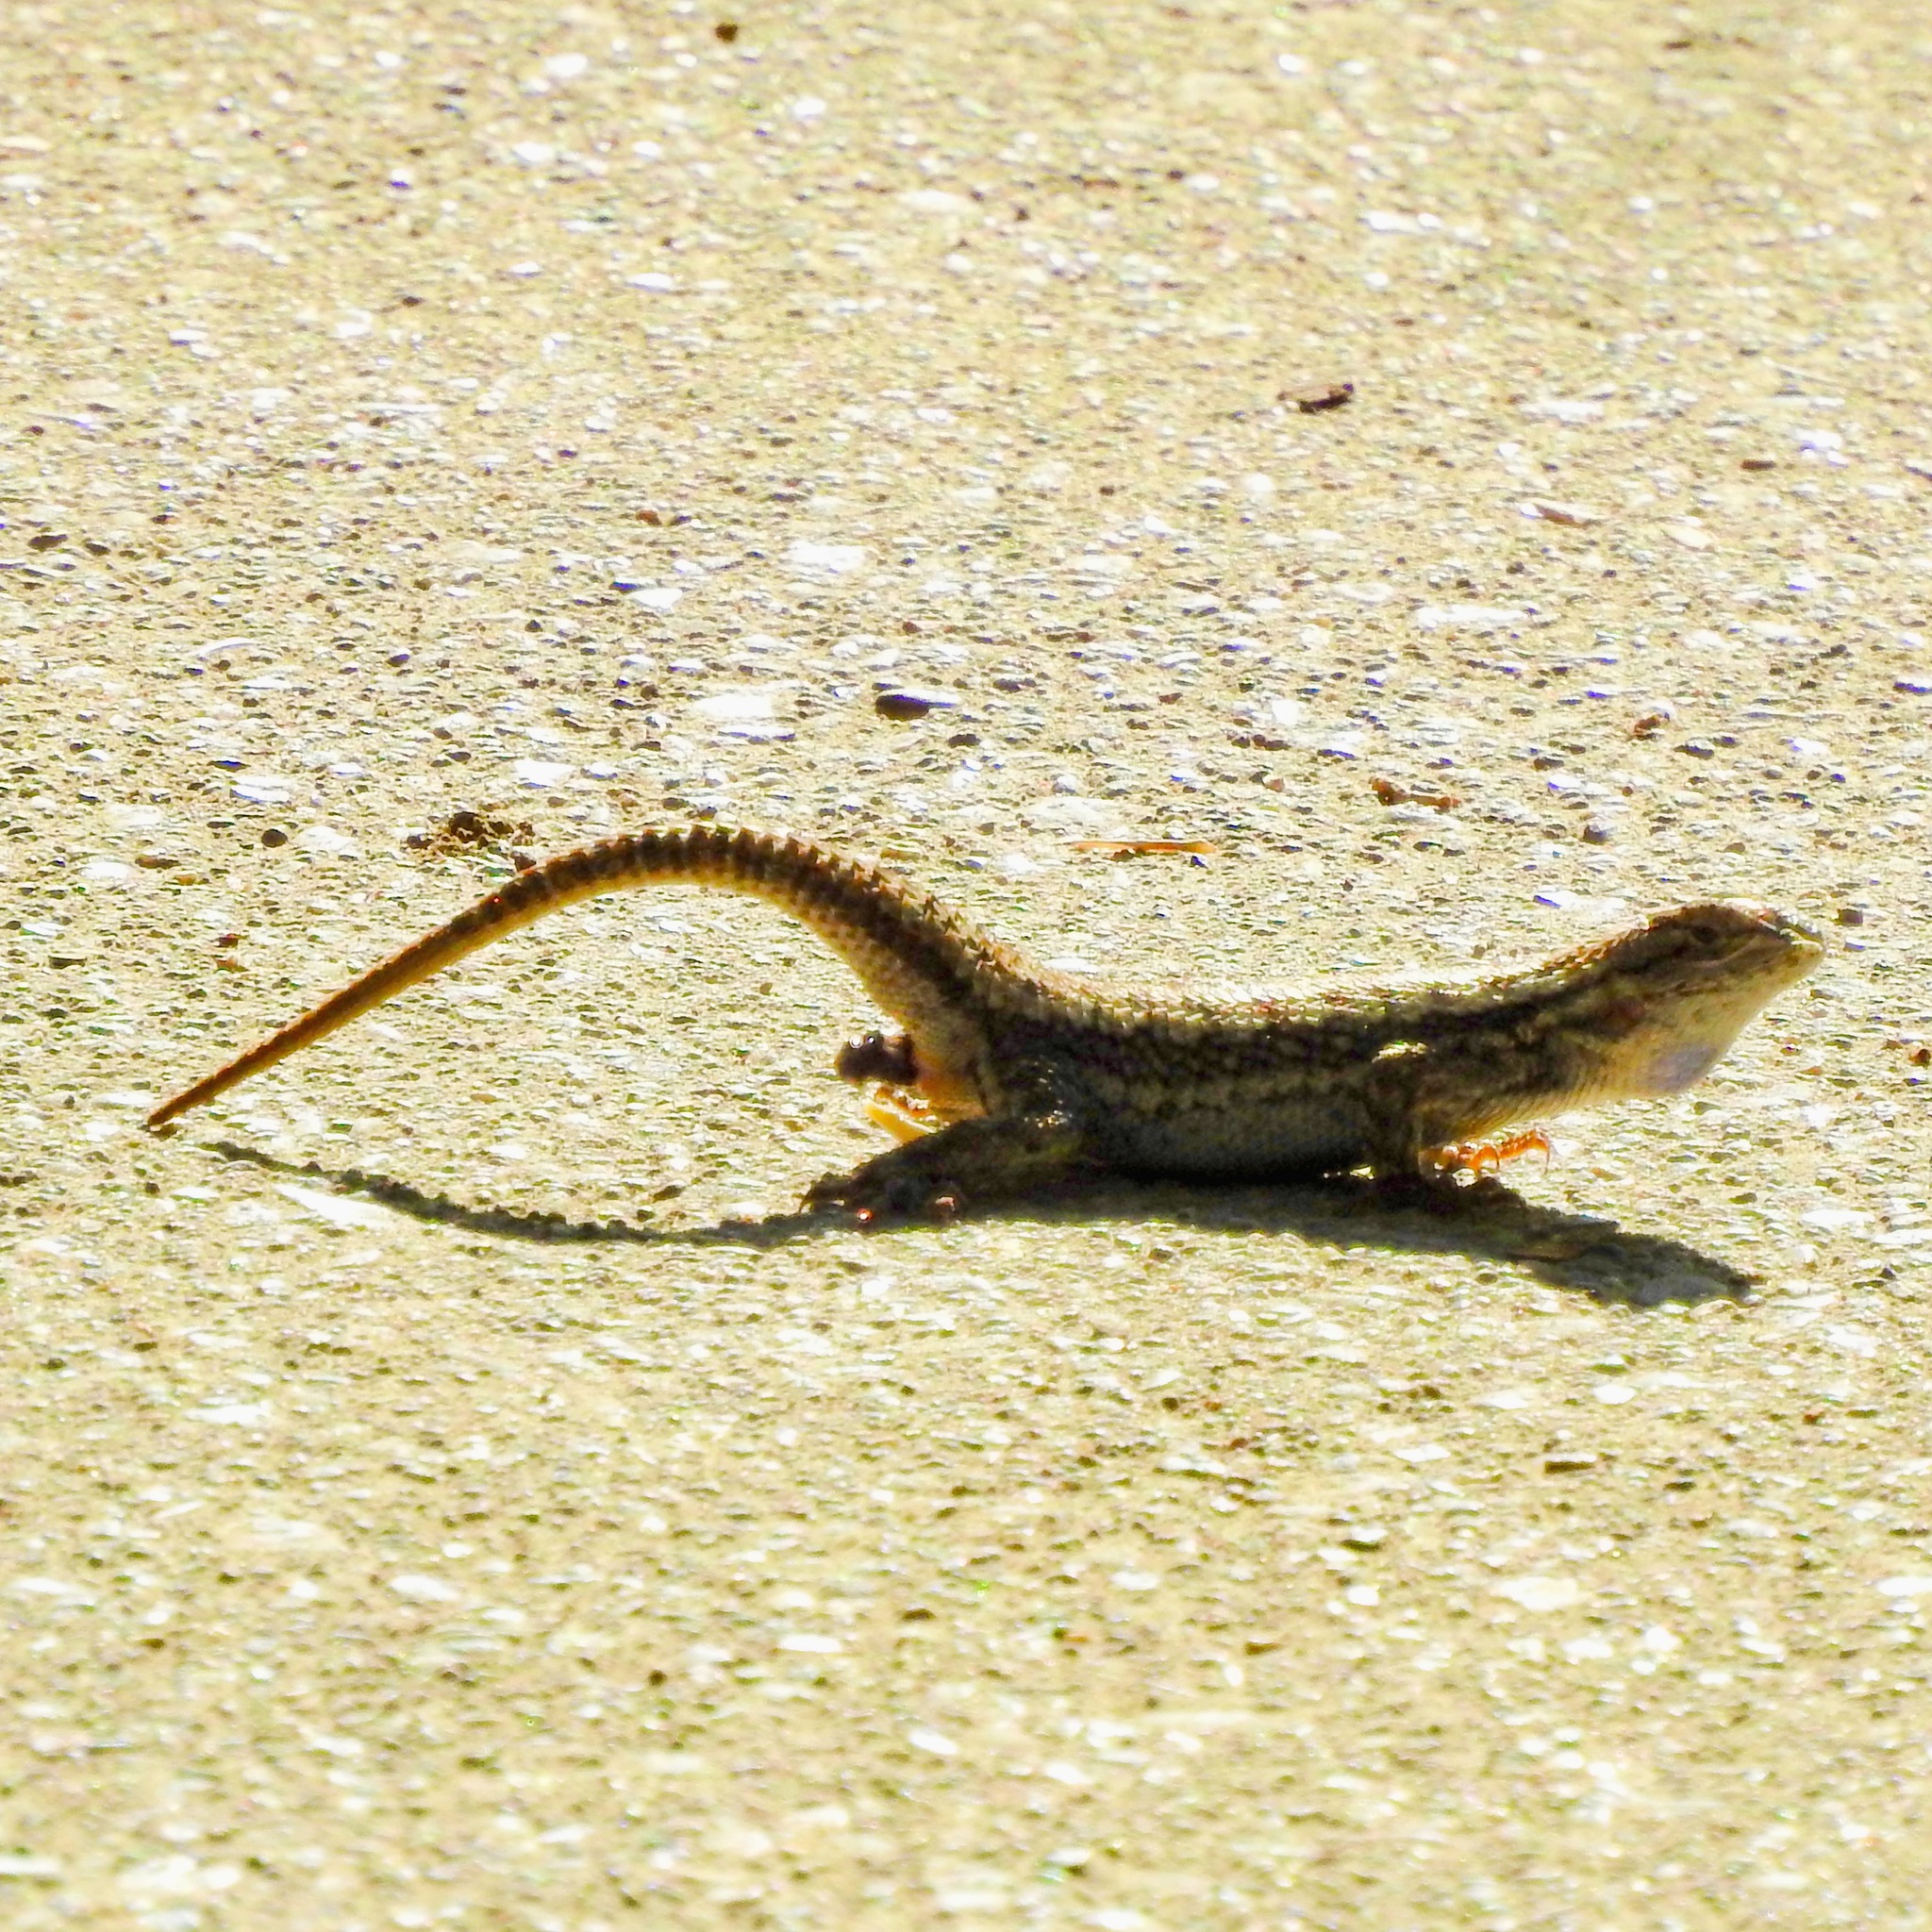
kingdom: Animalia
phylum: Chordata
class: Squamata
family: Phrynosomatidae
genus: Sceloporus
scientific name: Sceloporus occidentalis
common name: Western fence lizard
